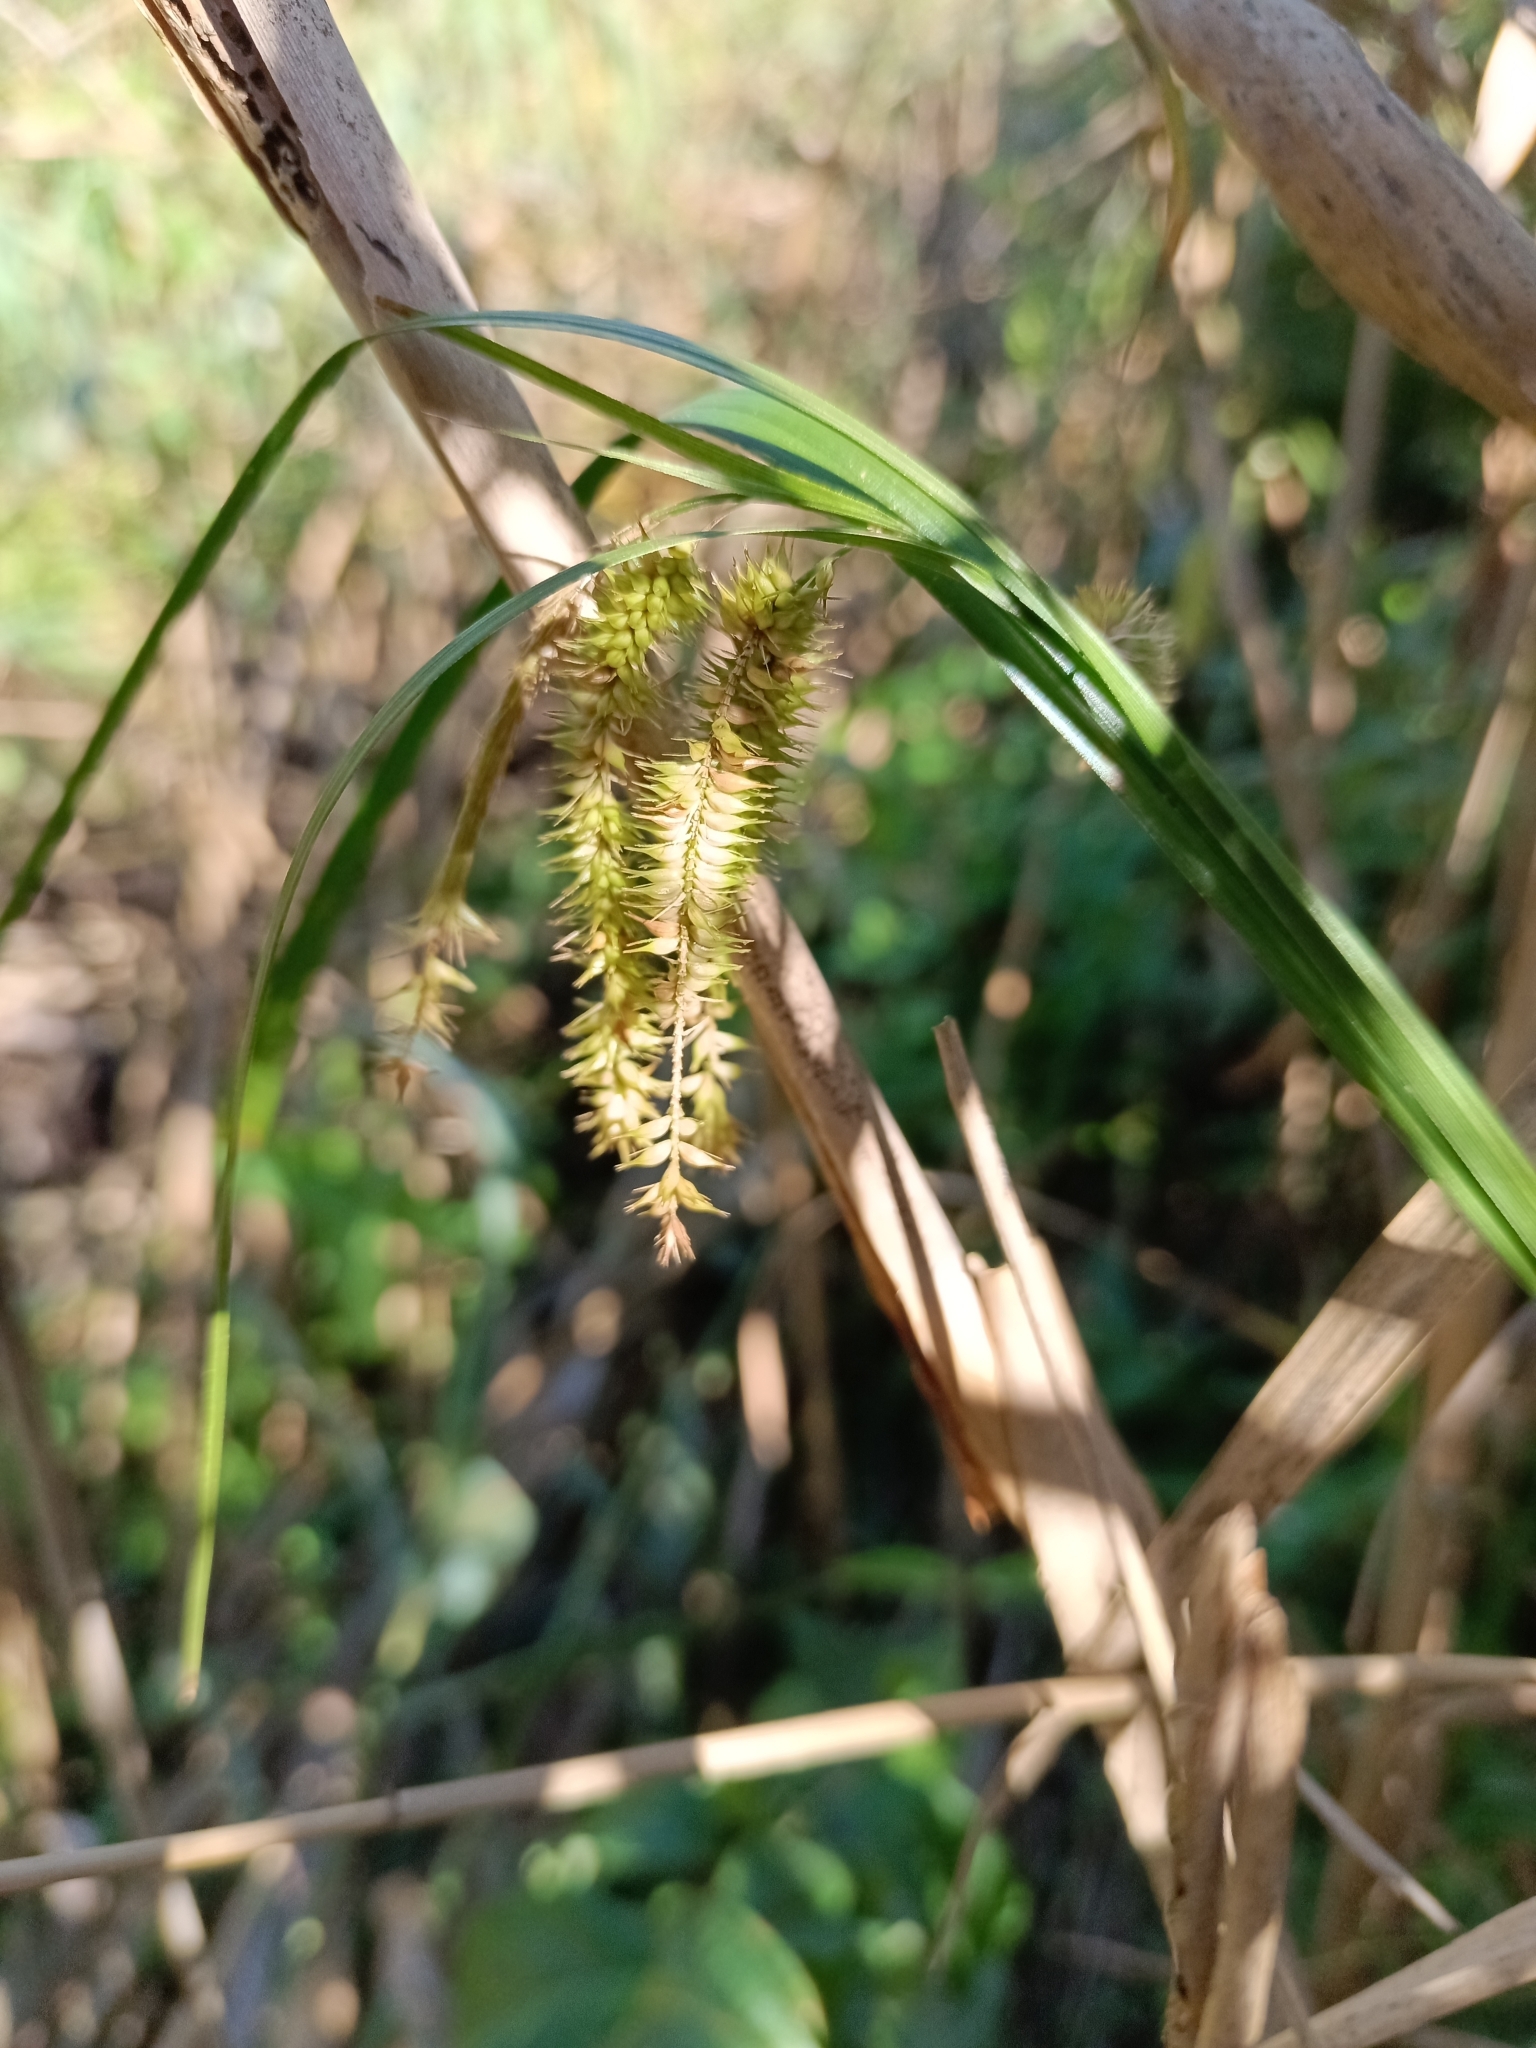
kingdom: Plantae
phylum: Tracheophyta
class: Liliopsida
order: Poales
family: Cyperaceae
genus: Carex
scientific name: Carex pseudocyperus
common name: Cyperus sedge
